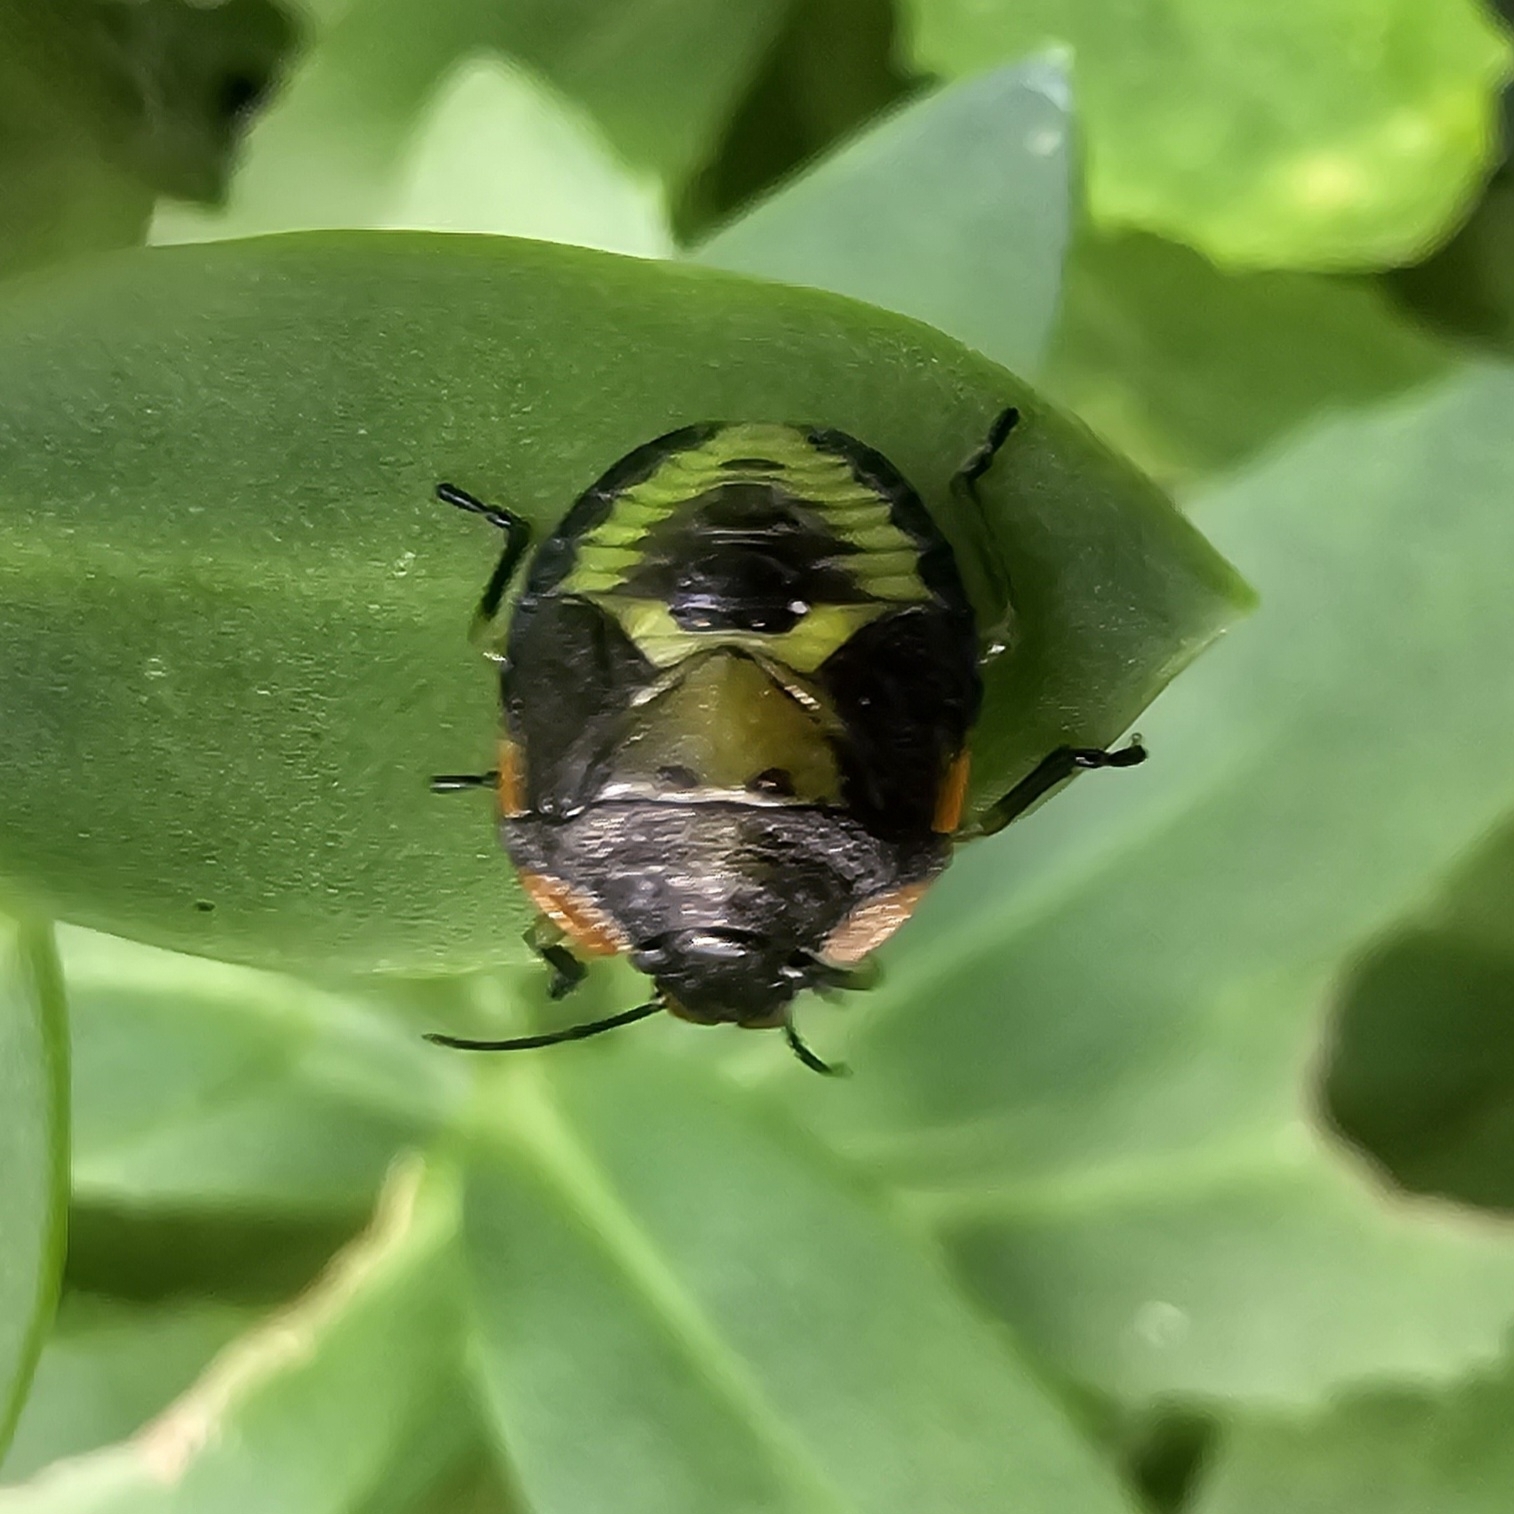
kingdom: Animalia
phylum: Arthropoda
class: Insecta
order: Hemiptera
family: Pentatomidae
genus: Chinavia
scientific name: Chinavia hilaris
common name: Green stink bug
